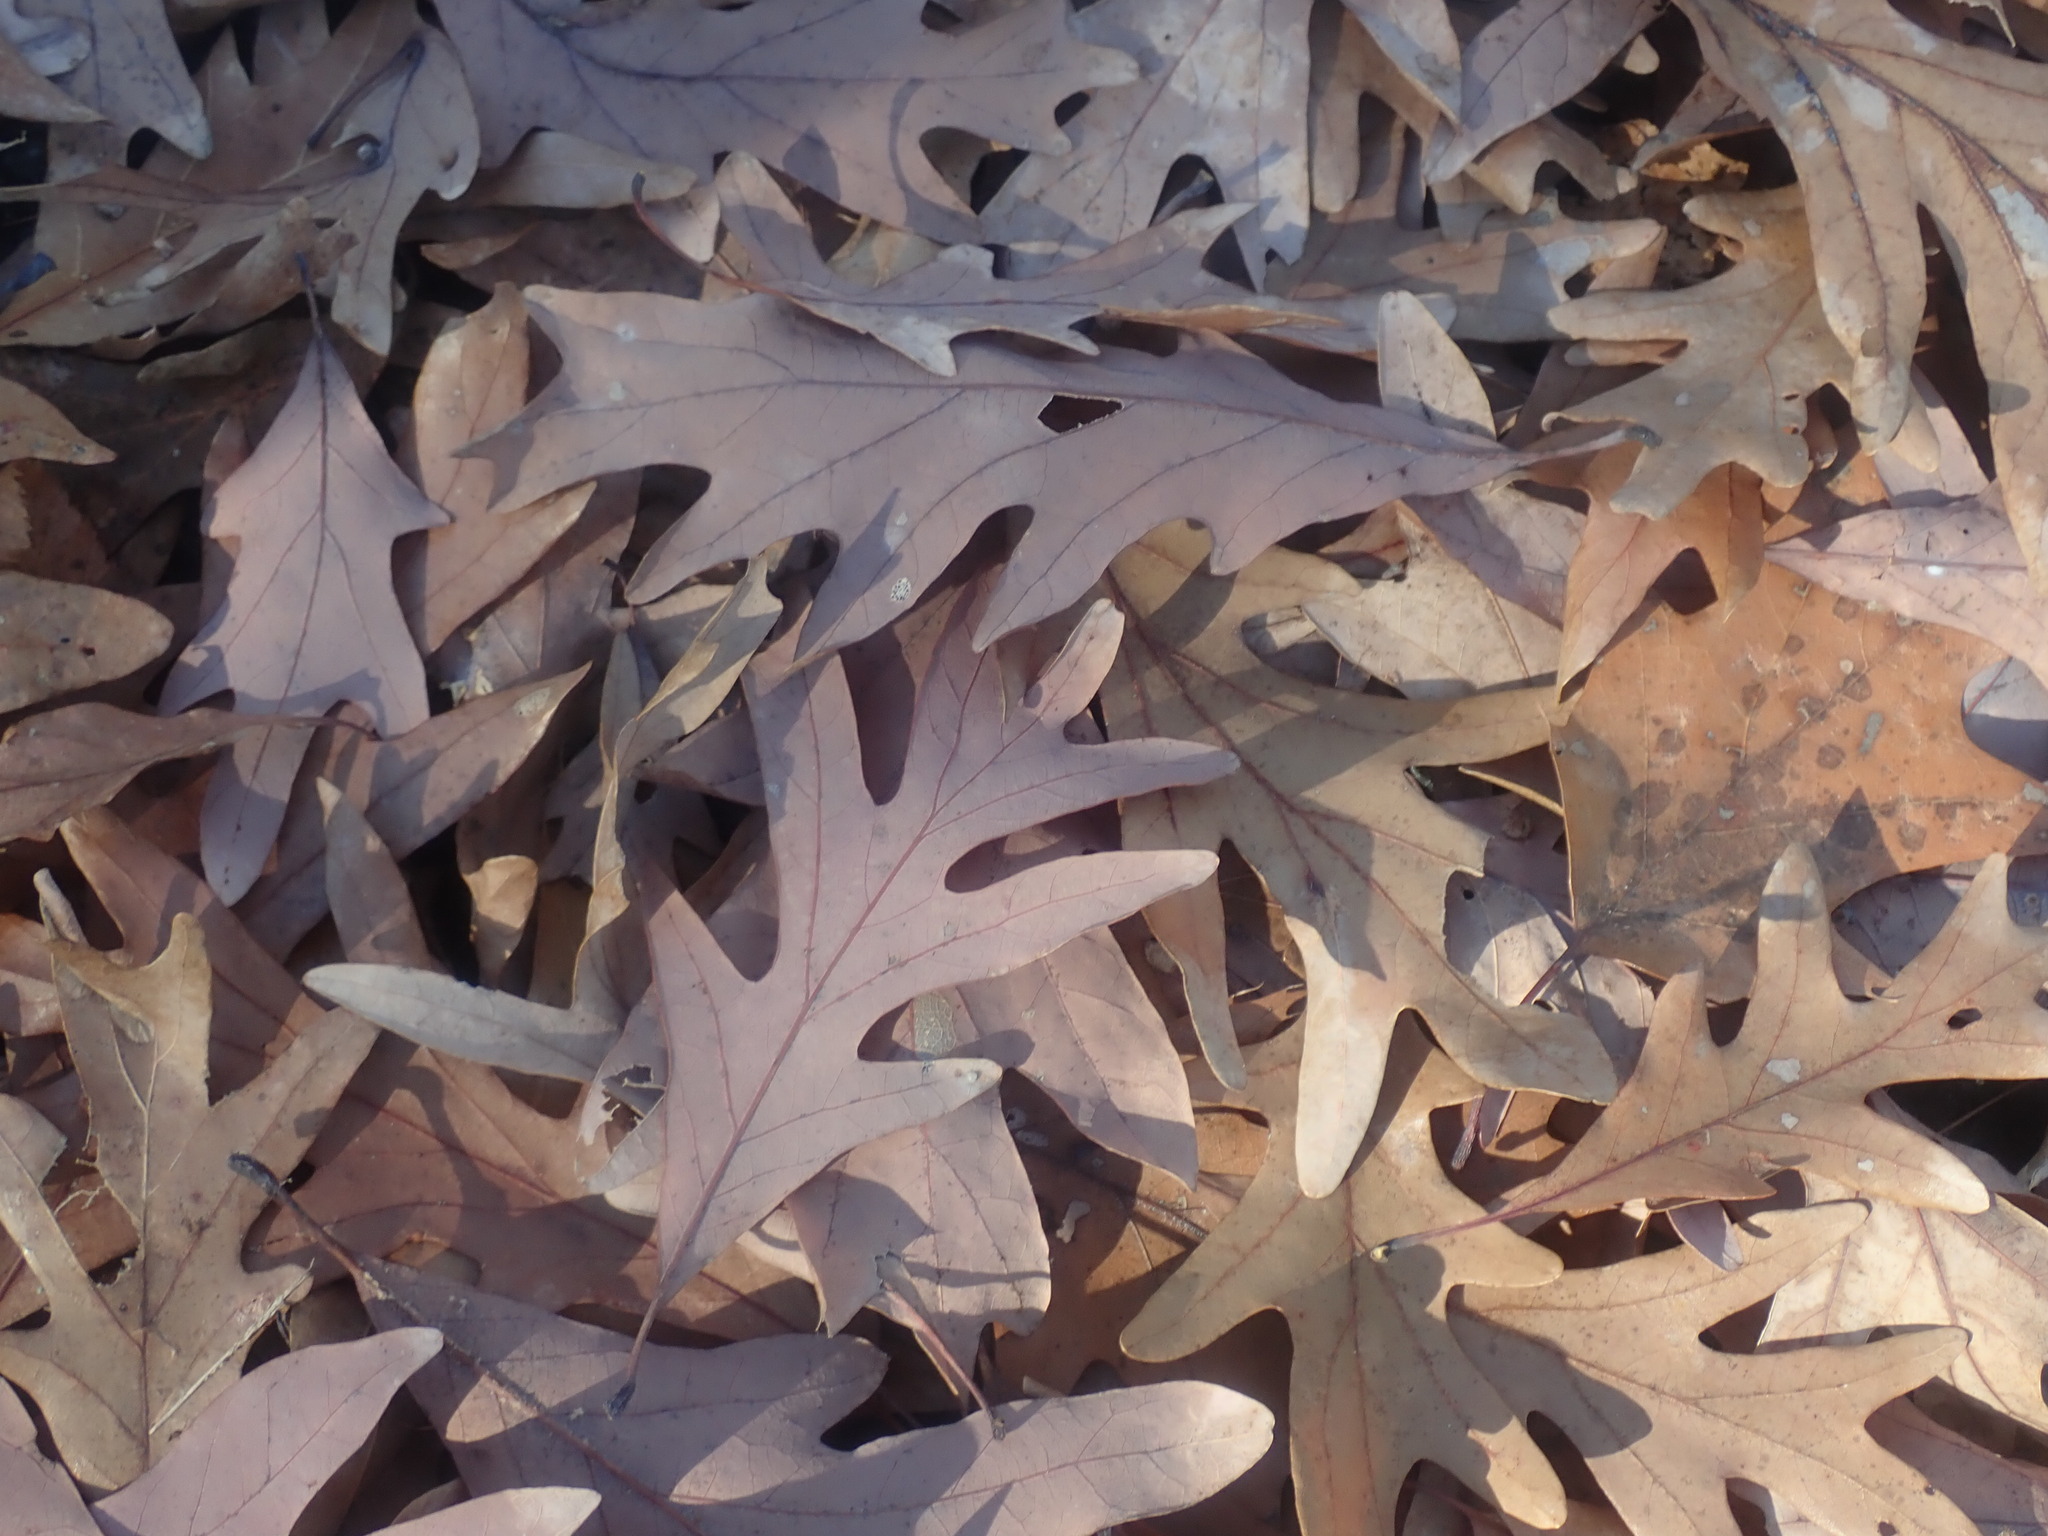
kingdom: Plantae
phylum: Tracheophyta
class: Magnoliopsida
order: Fagales
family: Fagaceae
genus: Quercus
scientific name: Quercus alba
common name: White oak
